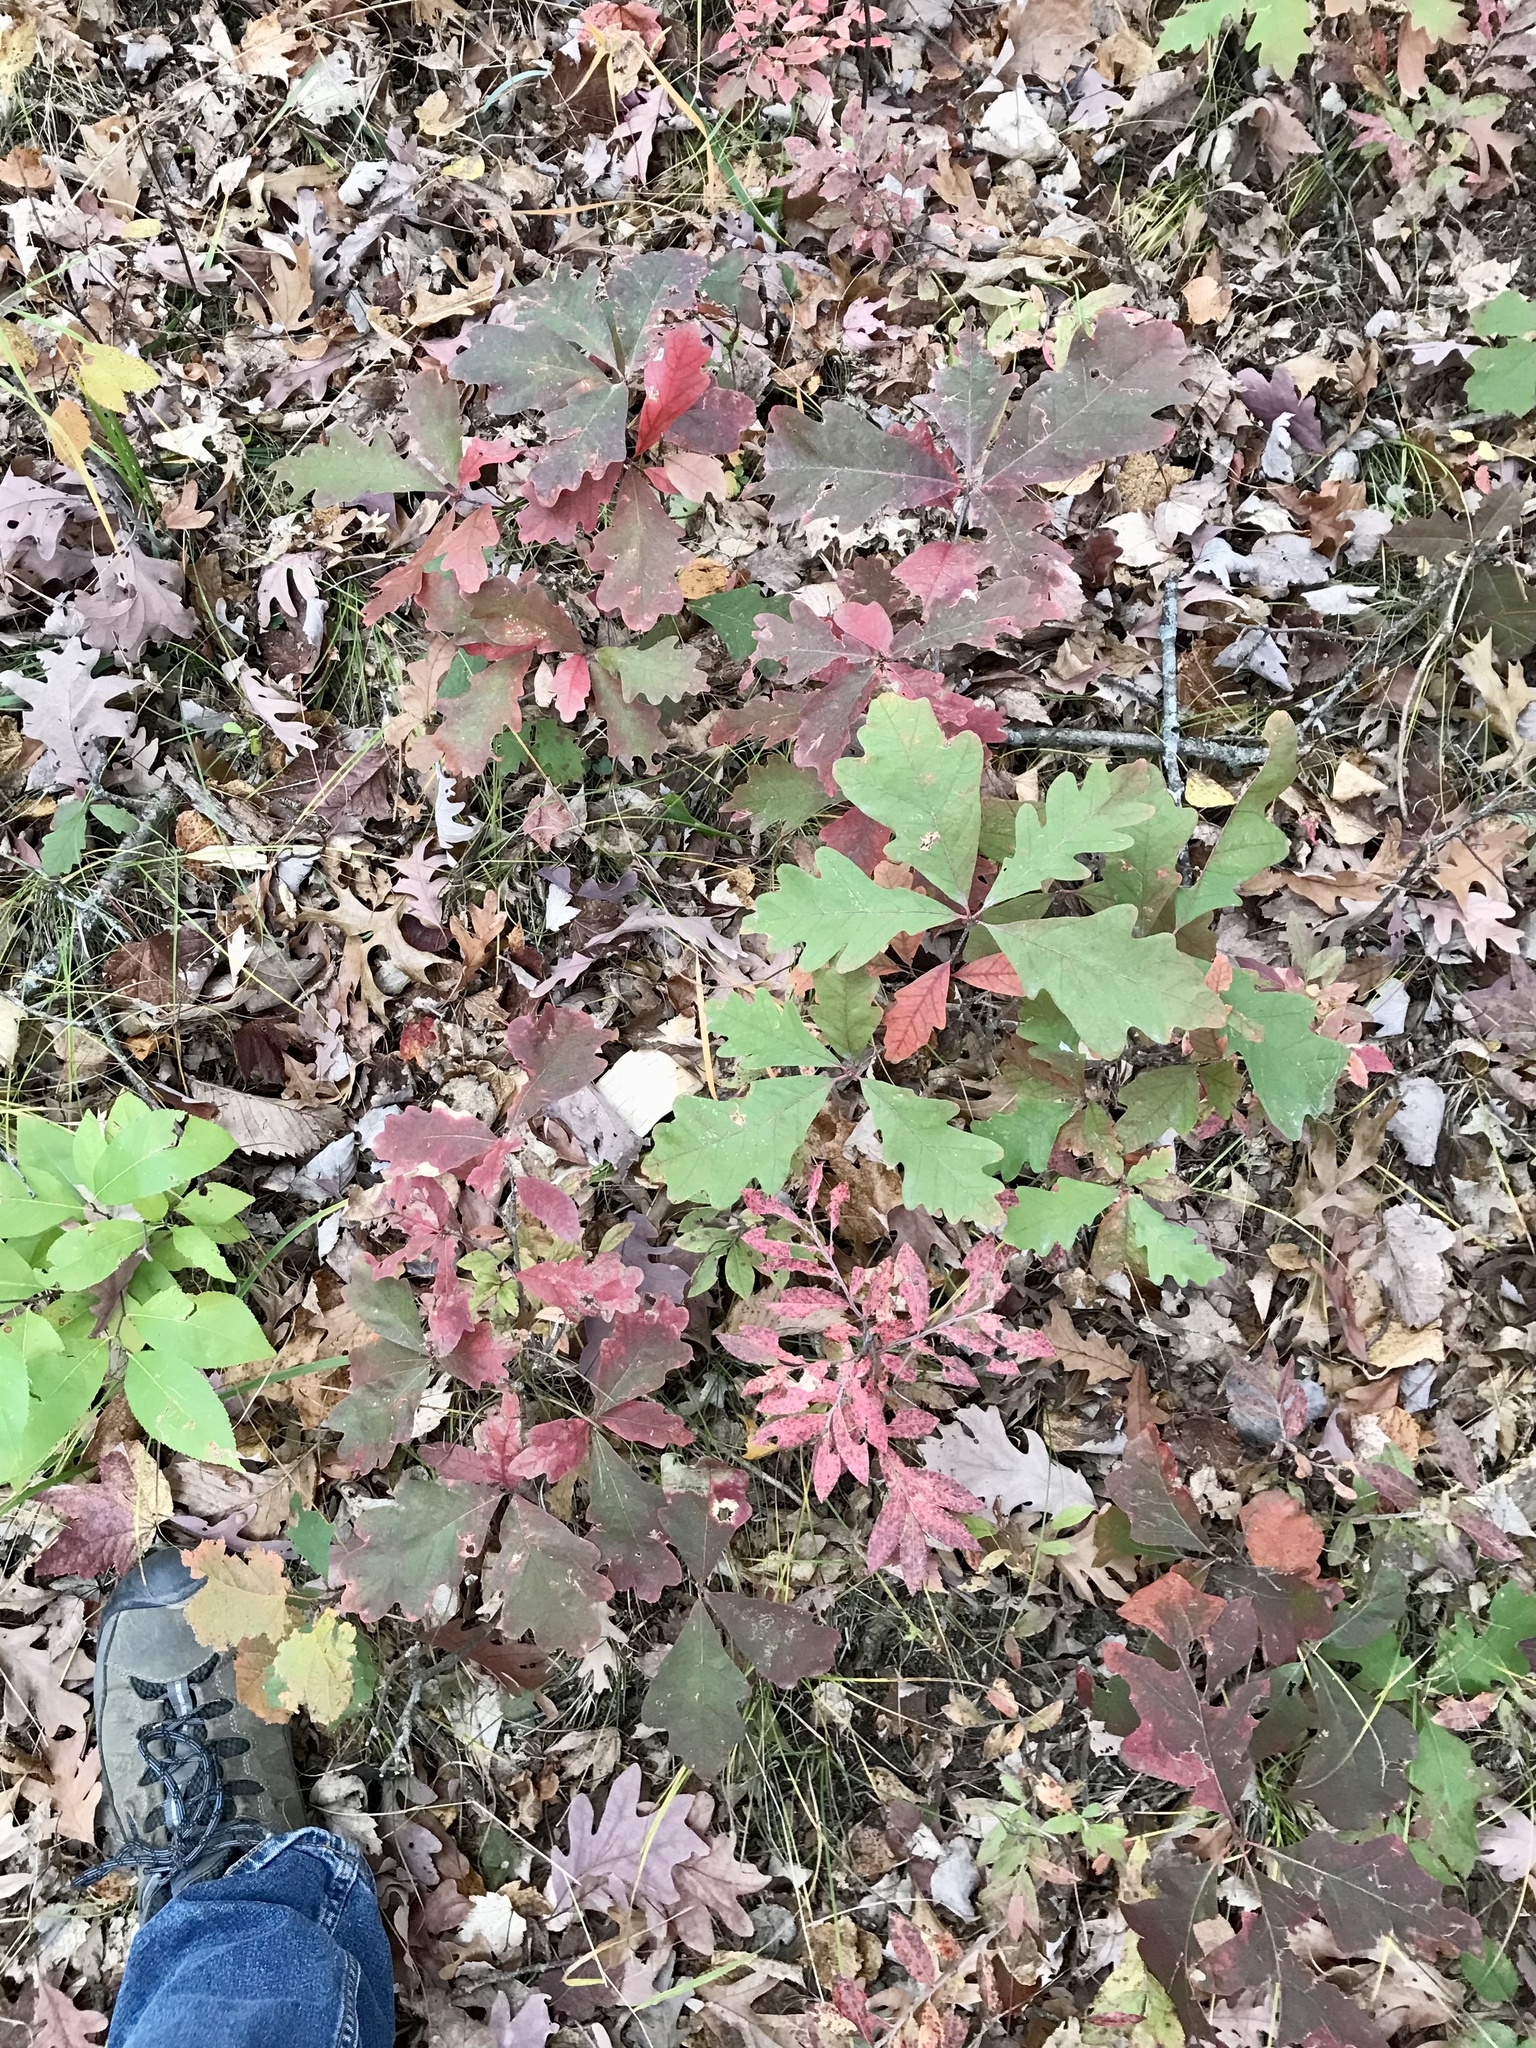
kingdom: Plantae
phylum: Tracheophyta
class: Magnoliopsida
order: Fagales
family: Fagaceae
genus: Quercus
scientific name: Quercus alba
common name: White oak
